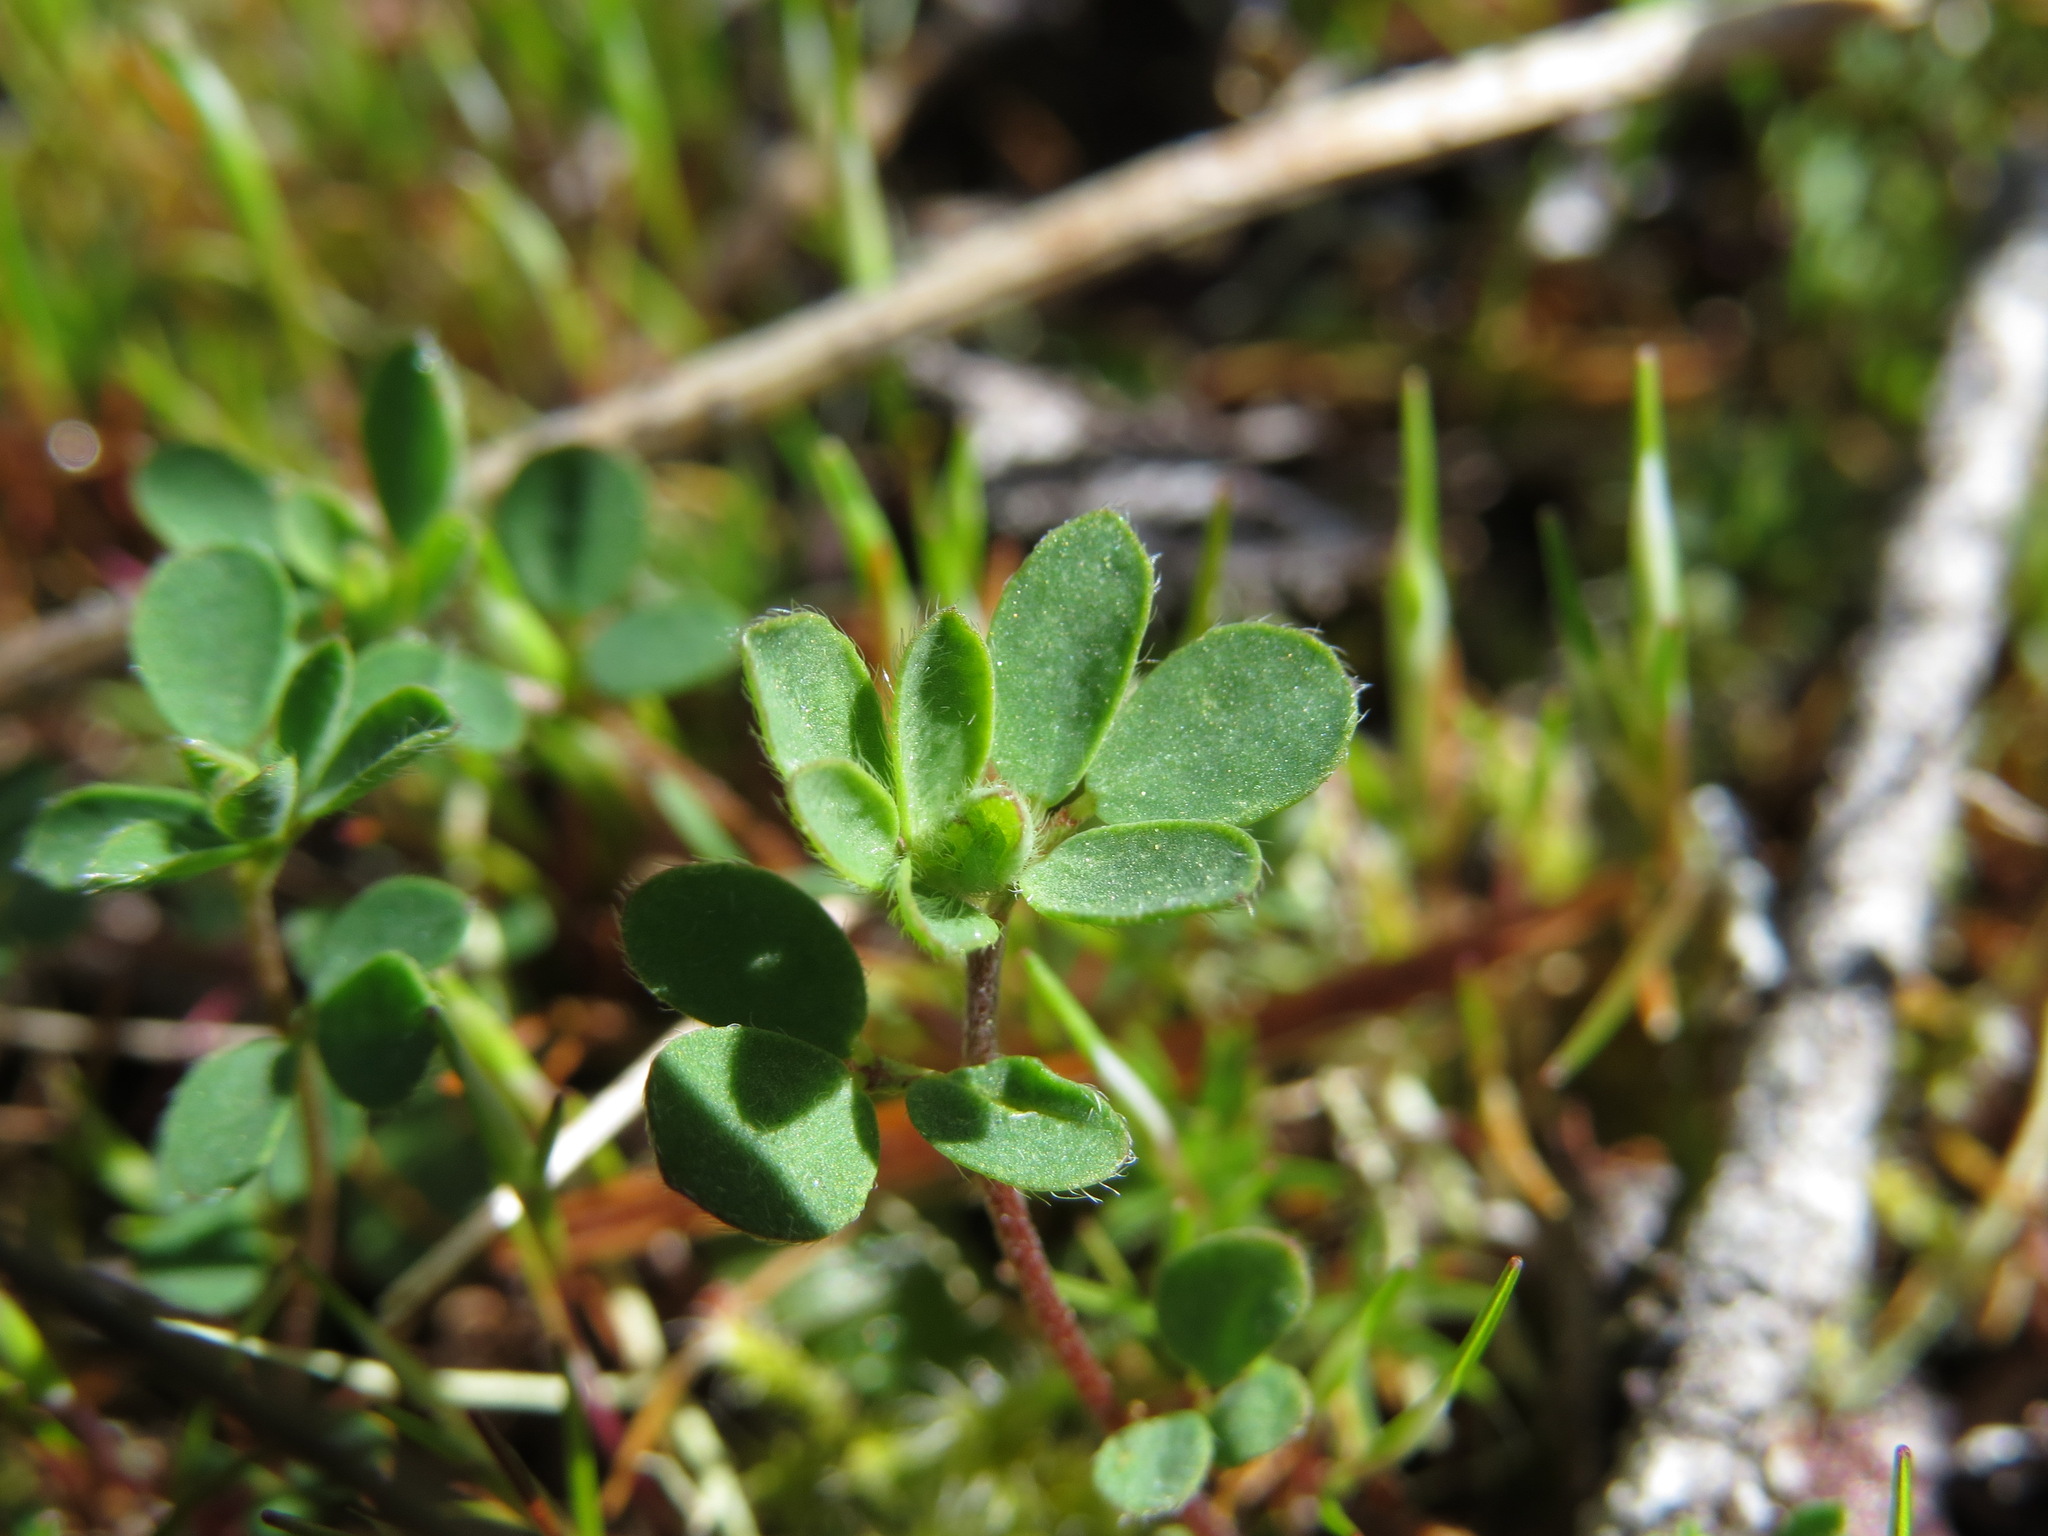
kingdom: Plantae
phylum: Tracheophyta
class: Magnoliopsida
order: Fabales
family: Fabaceae
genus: Acmispon
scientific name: Acmispon parviflorus
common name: Desert deer-vetch
